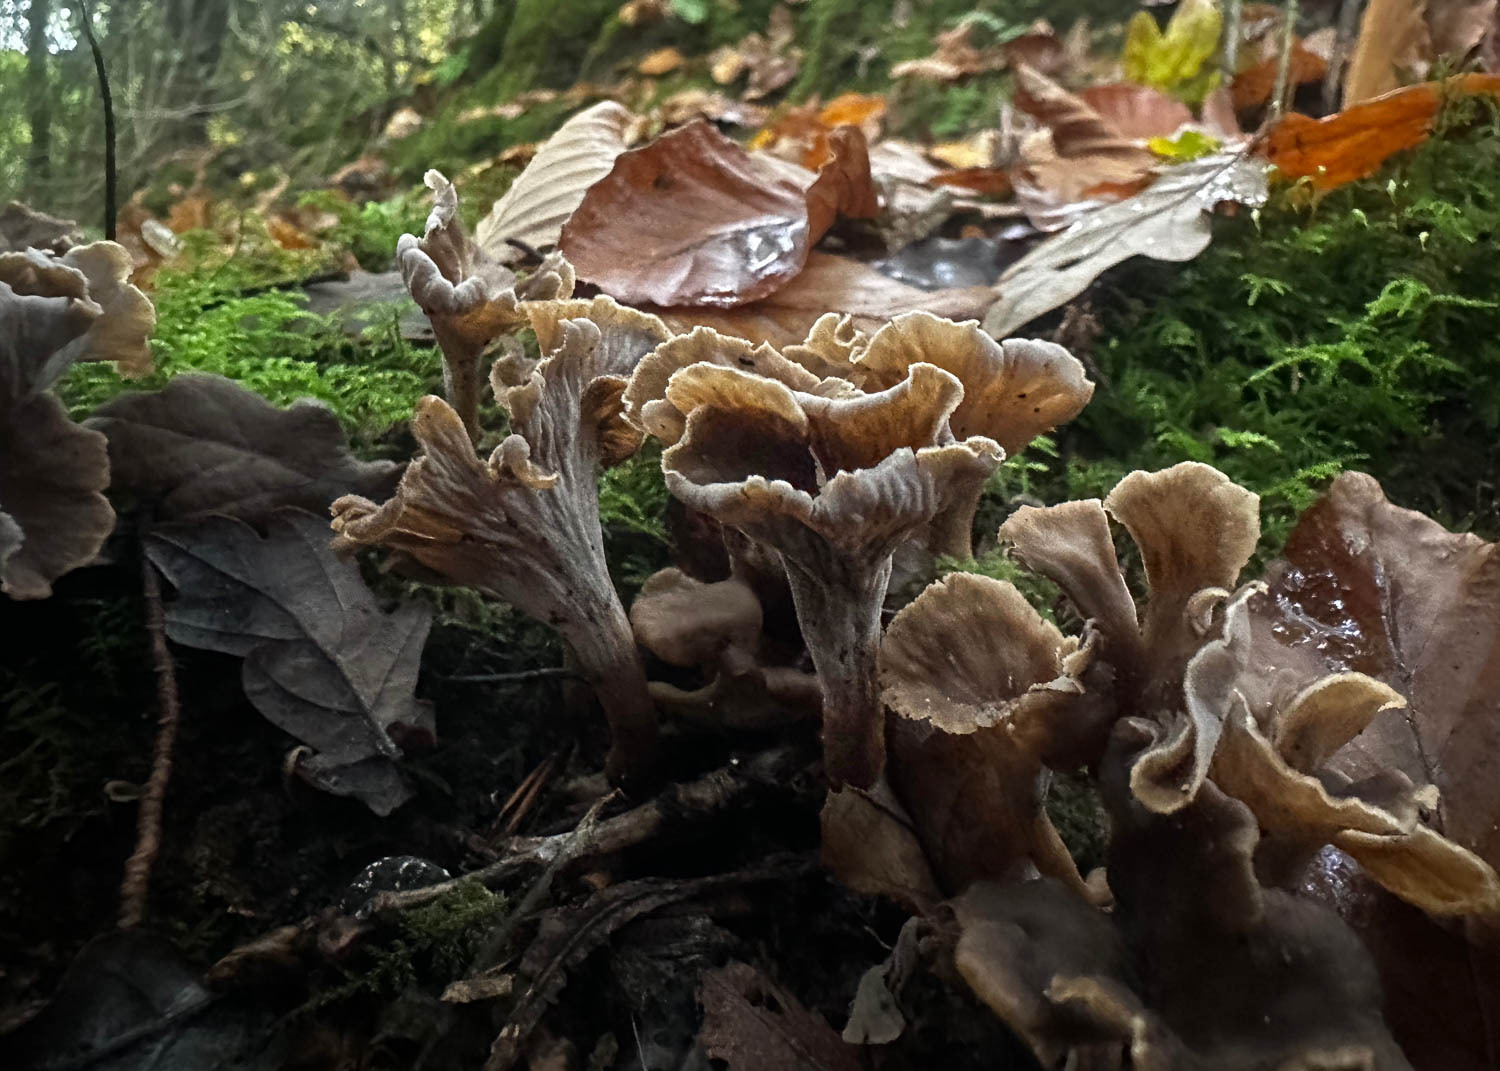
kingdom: Fungi
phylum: Basidiomycota
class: Agaricomycetes
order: Cantharellales
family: Hydnaceae
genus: Cantharellus
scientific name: Cantharellus cinereus
